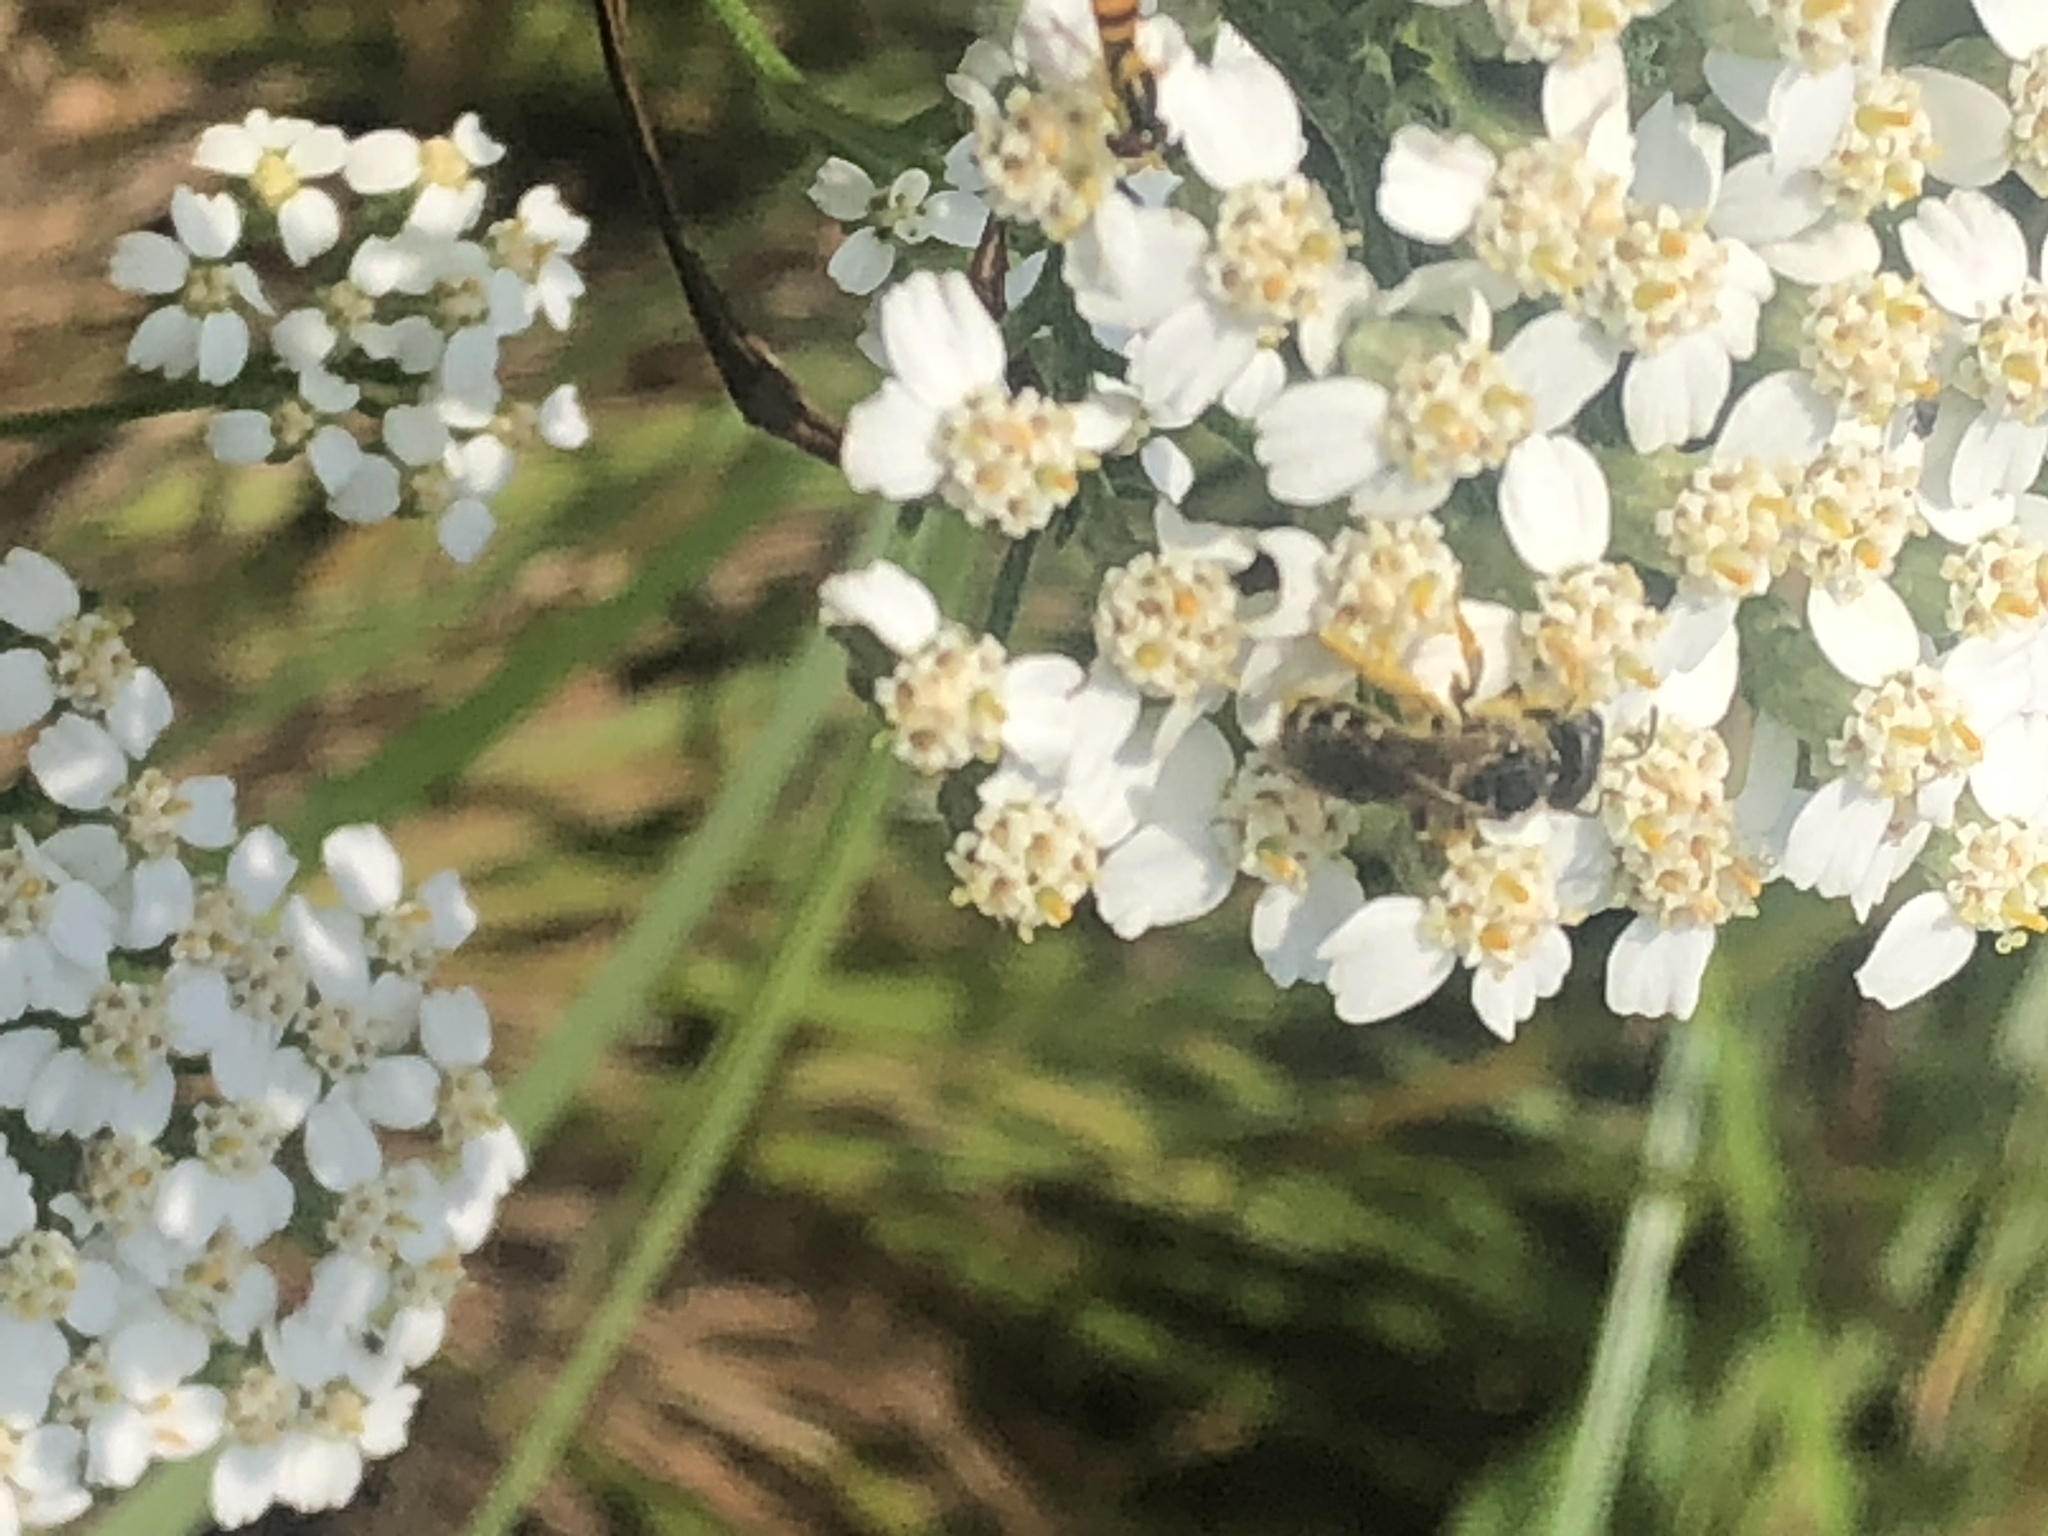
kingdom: Animalia
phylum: Arthropoda
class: Insecta
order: Hymenoptera
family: Halictidae
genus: Halictus
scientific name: Halictus ligatus
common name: Ligated furrow bee
